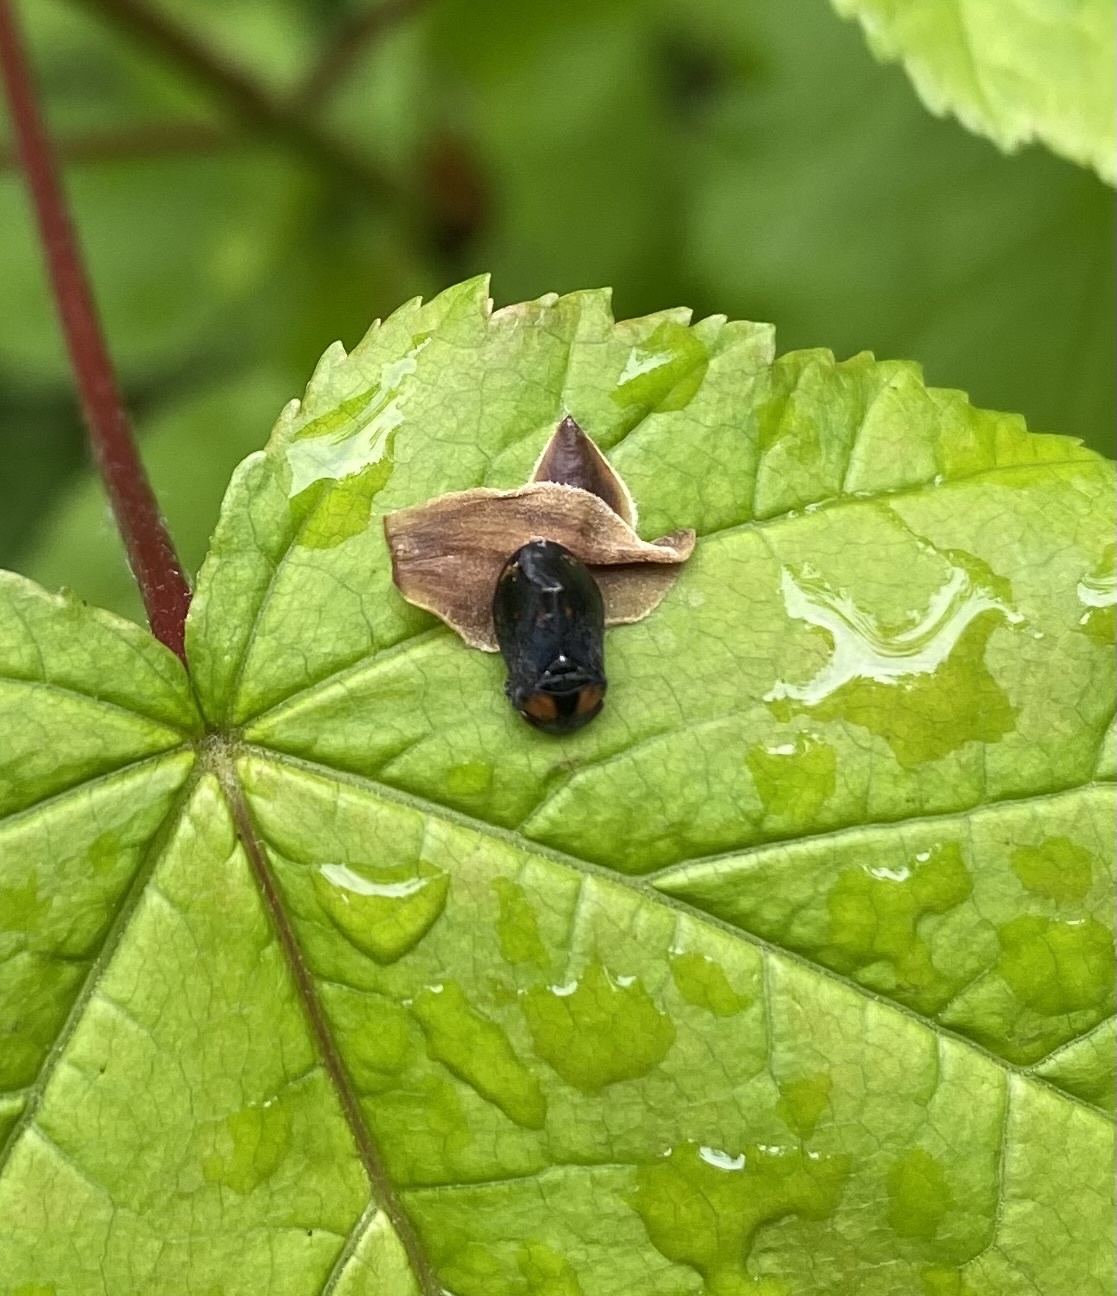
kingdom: Animalia
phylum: Arthropoda
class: Insecta
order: Hemiptera
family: Cicadellidae
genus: Penthimia
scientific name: Penthimia nigra
